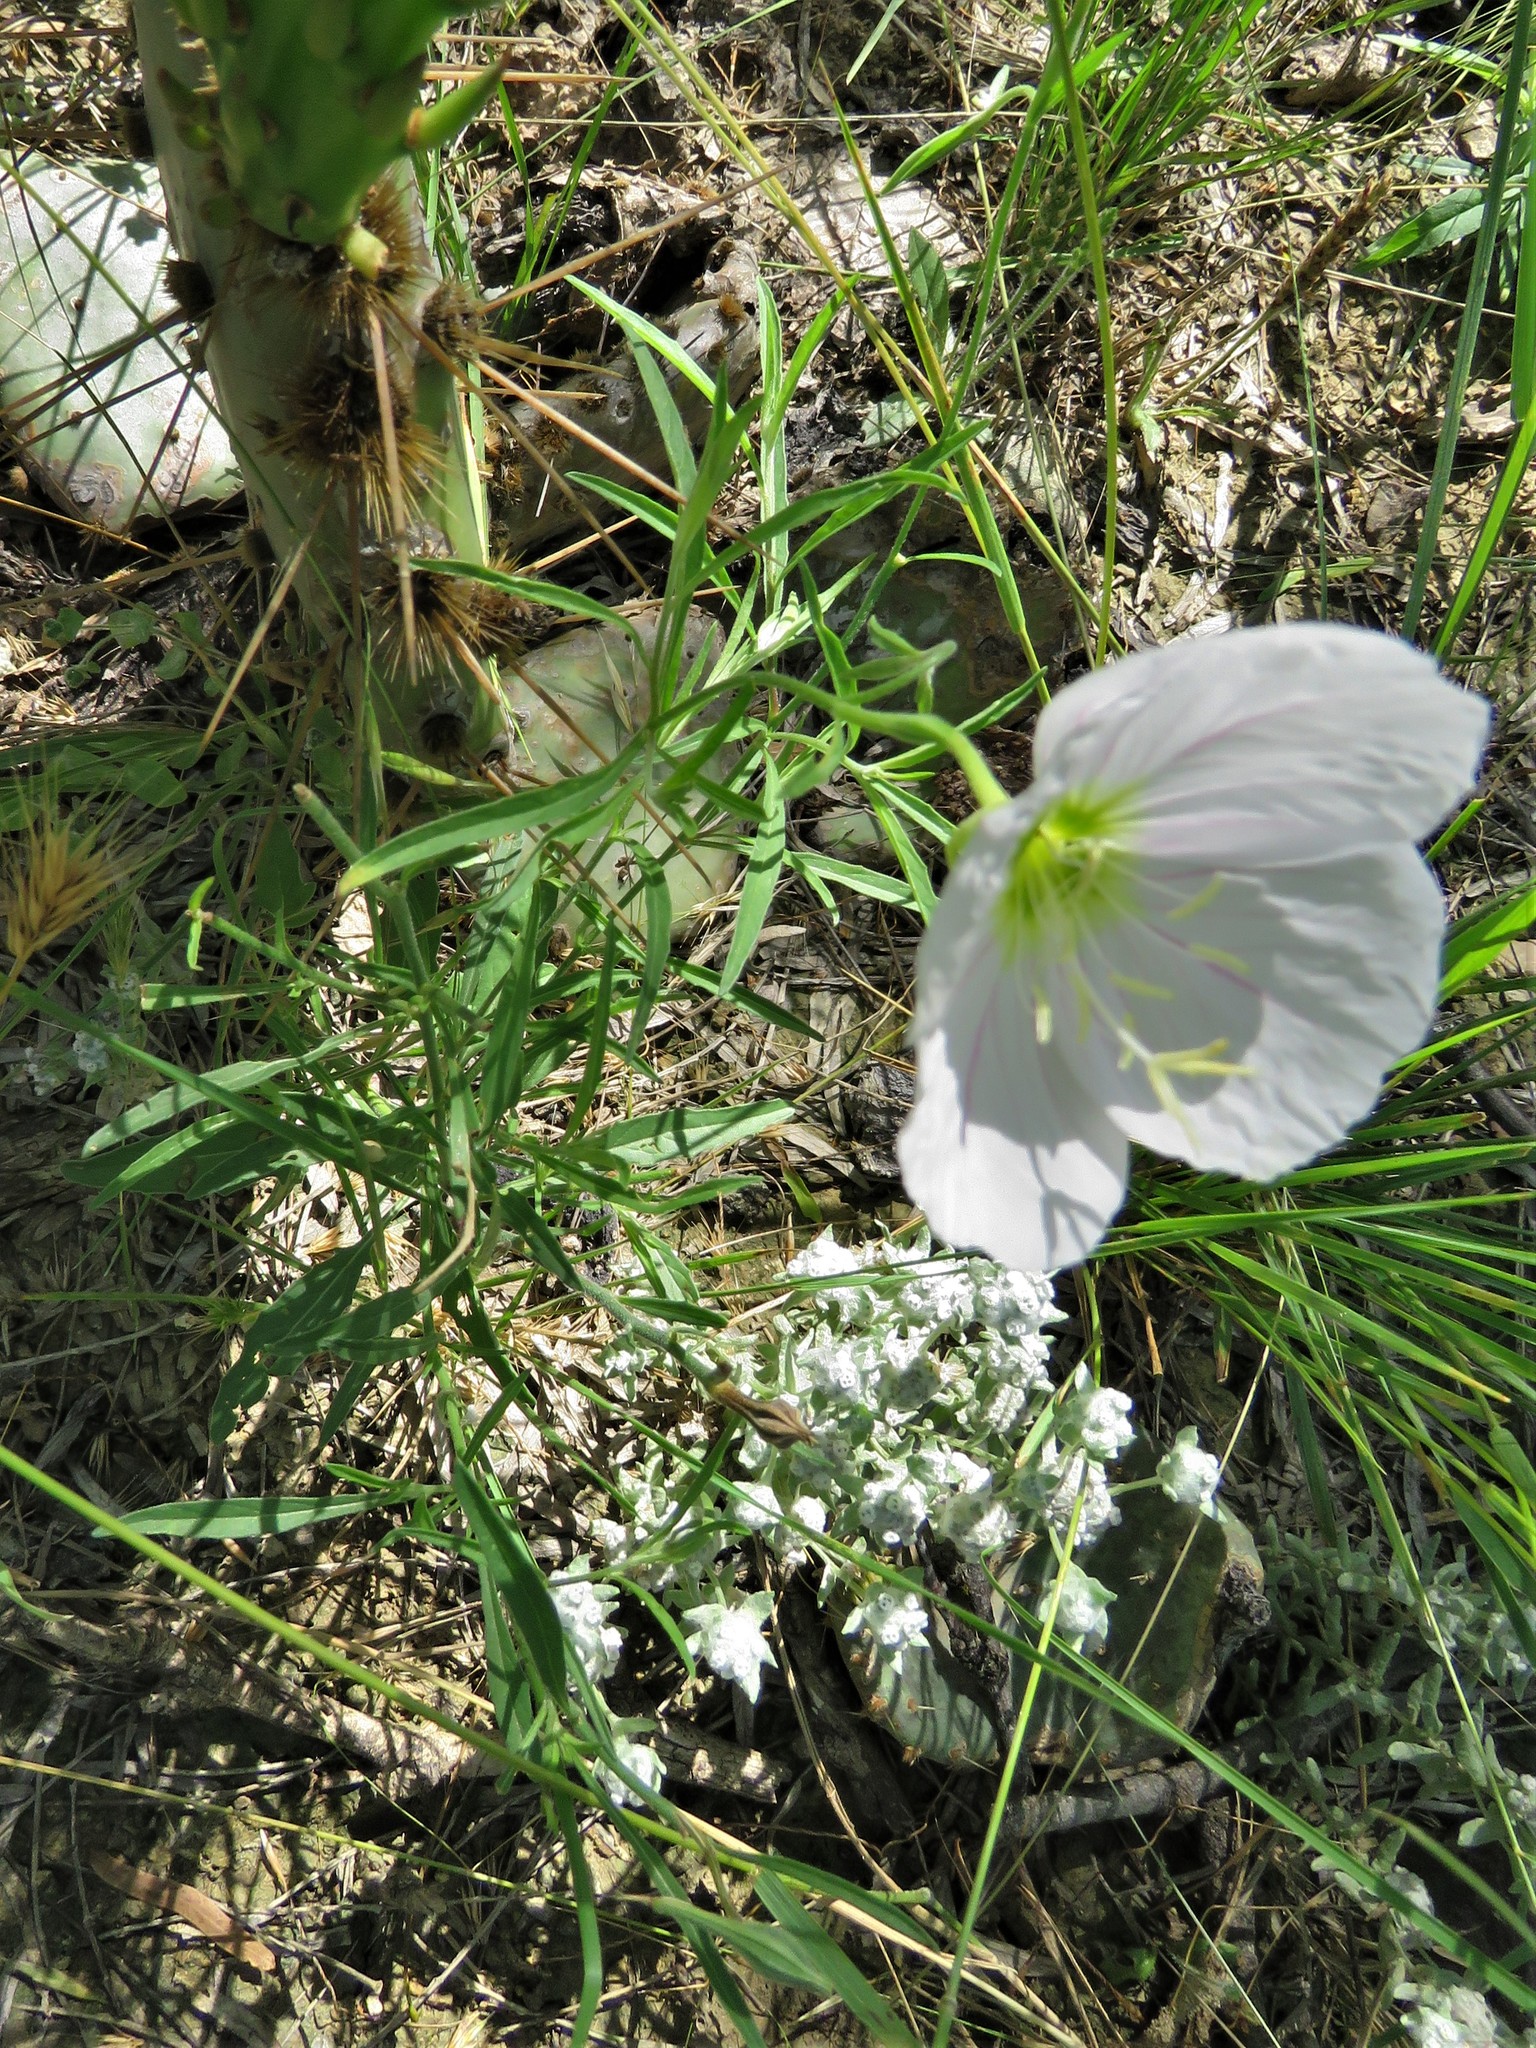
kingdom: Plantae
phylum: Tracheophyta
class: Magnoliopsida
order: Myrtales
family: Onagraceae
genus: Oenothera
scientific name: Oenothera speciosa
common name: White evening-primrose
